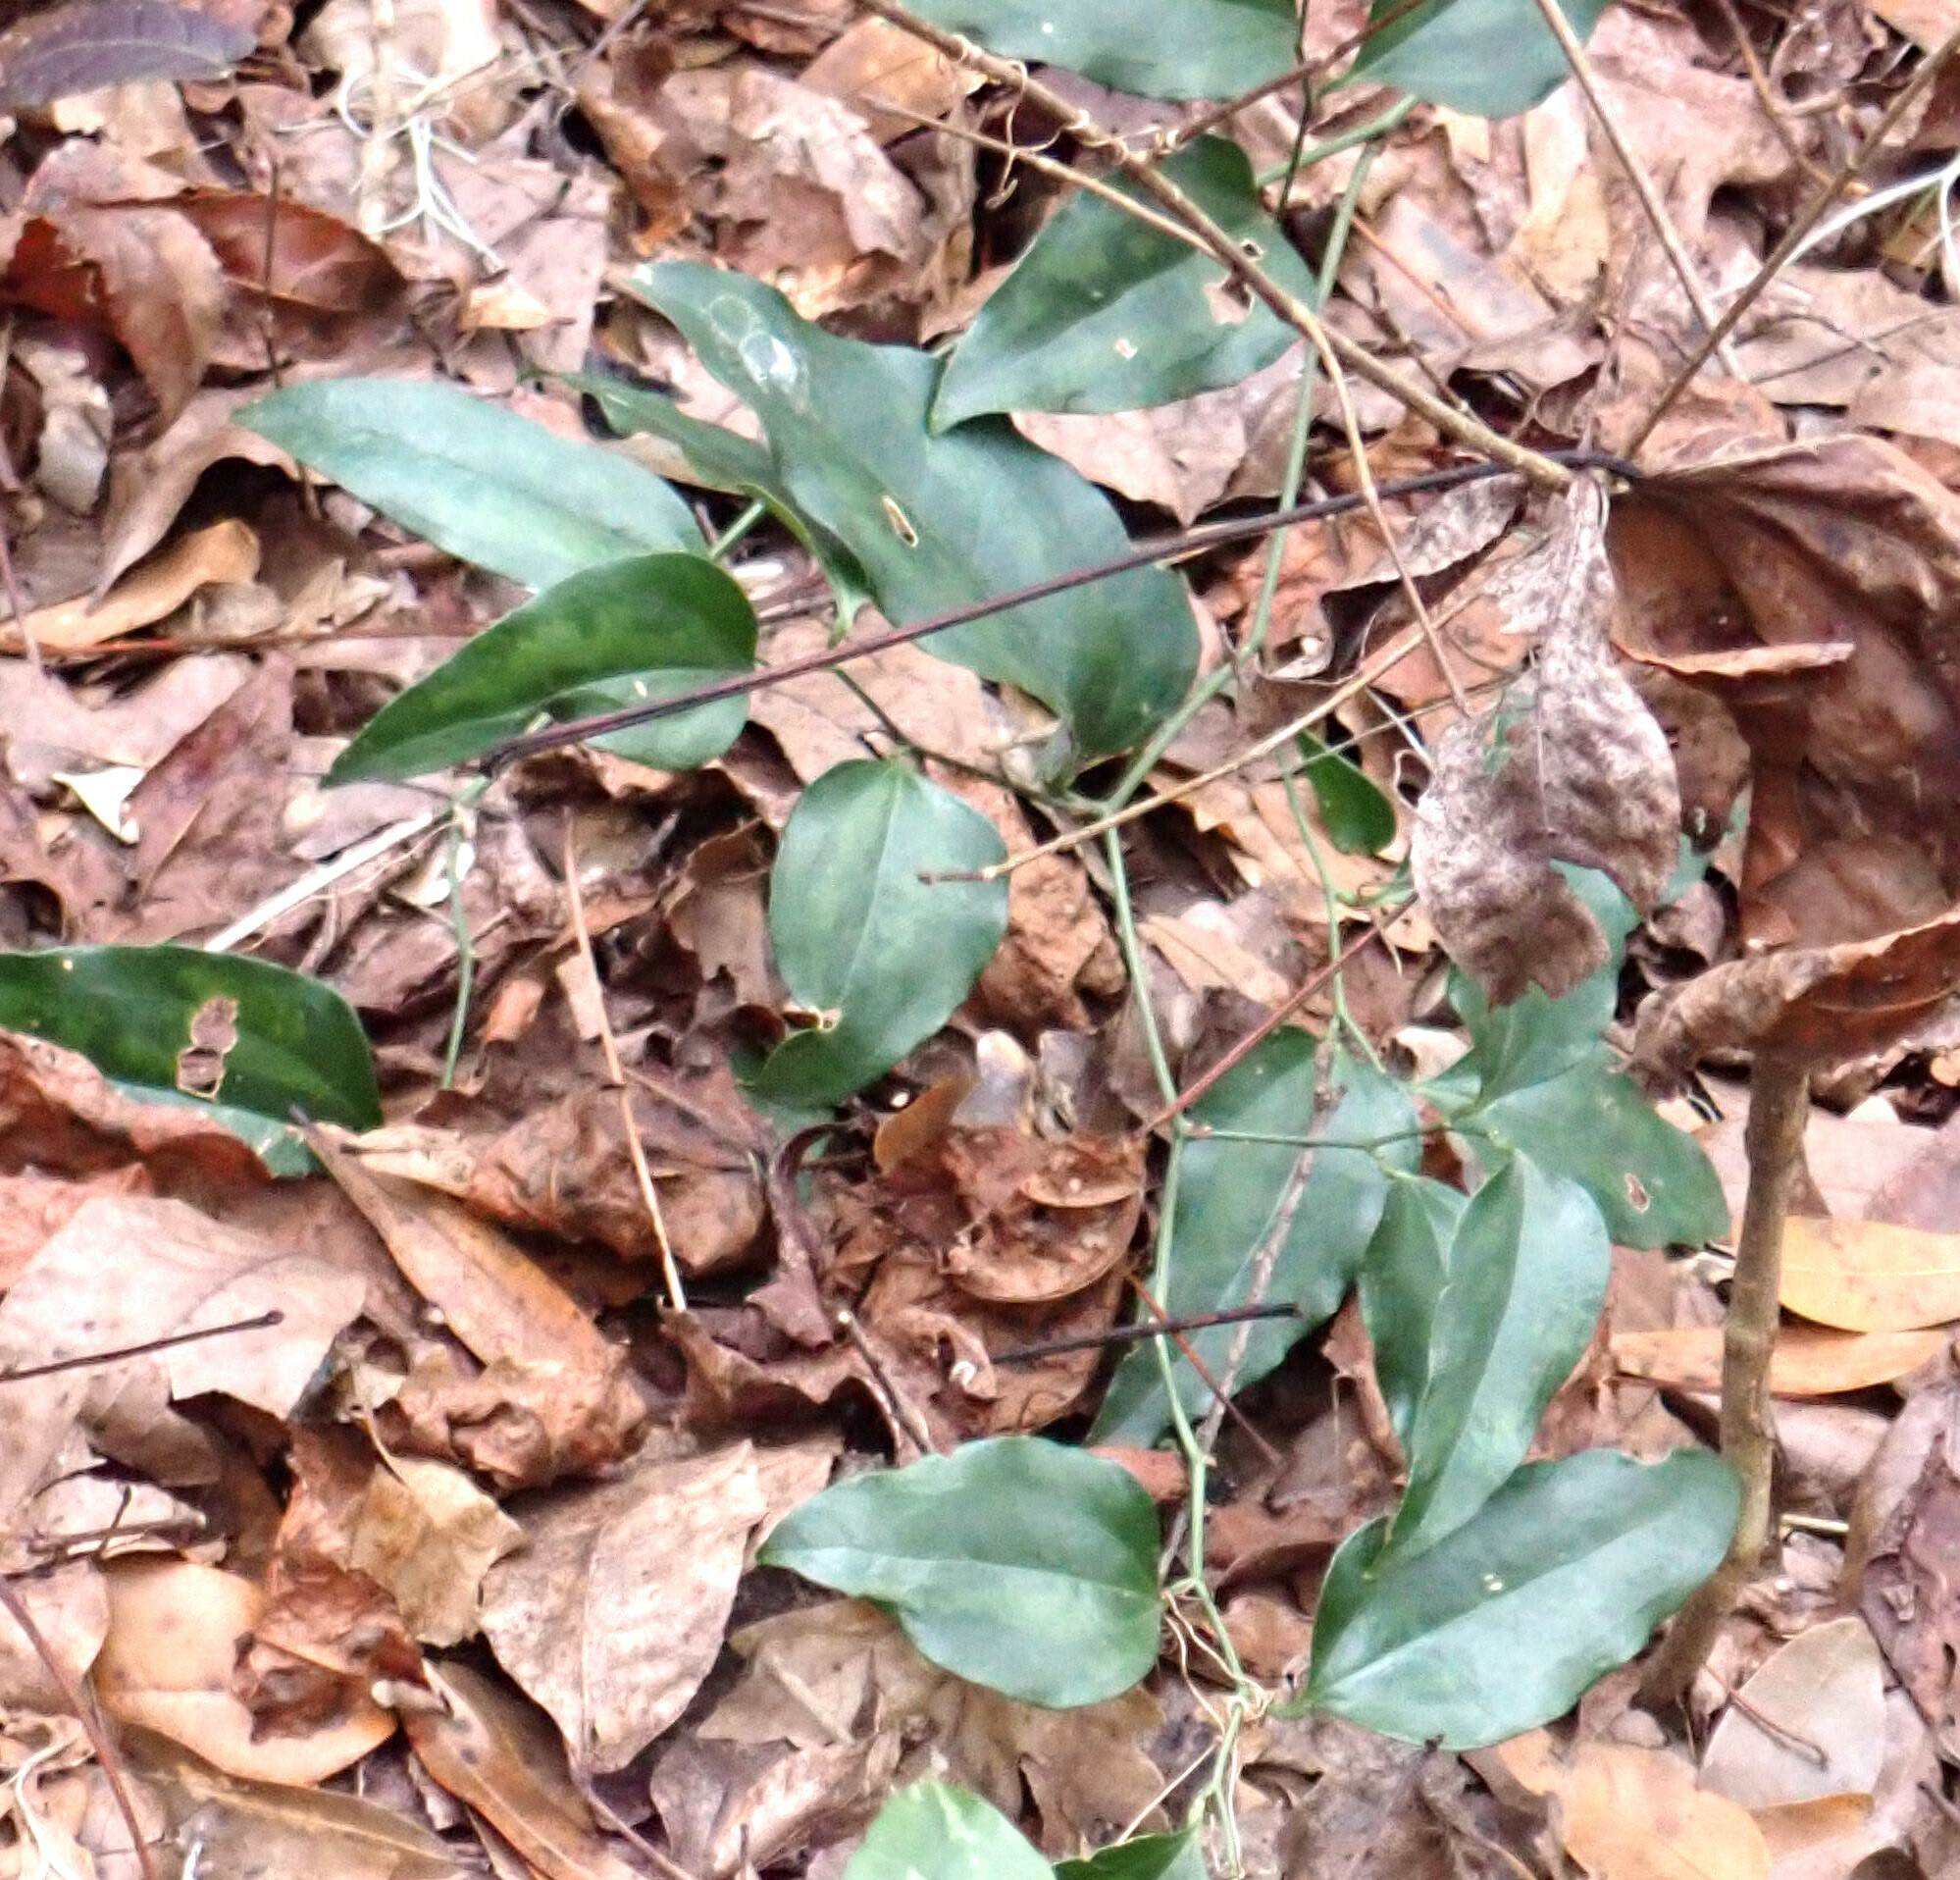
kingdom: Plantae
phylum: Tracheophyta
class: Liliopsida
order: Liliales
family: Smilacaceae
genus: Smilax
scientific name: Smilax maritima
